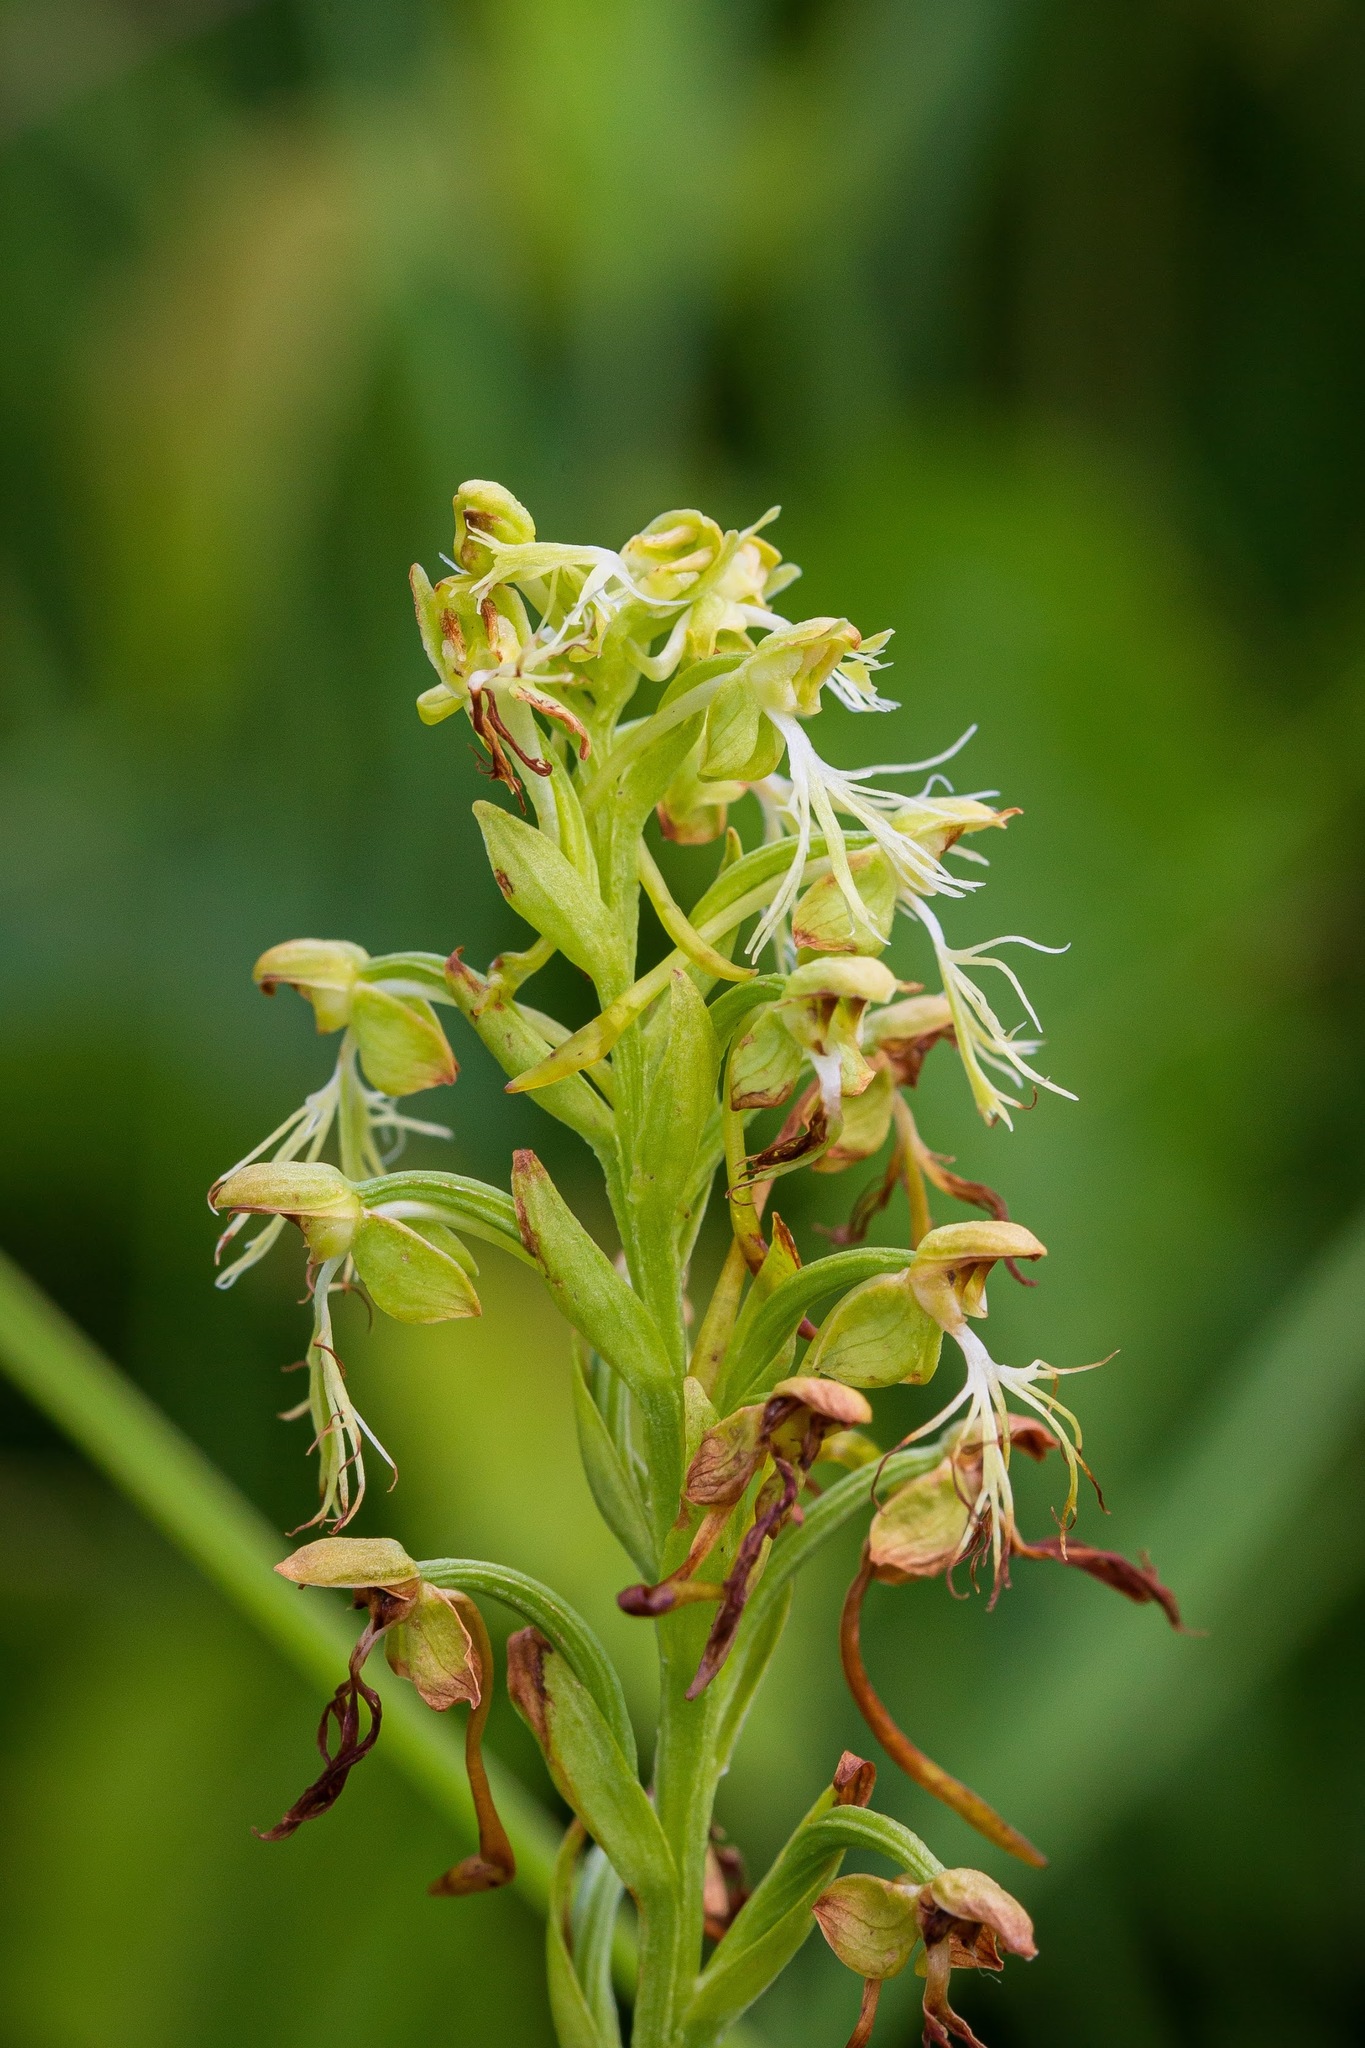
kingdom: Plantae
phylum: Tracheophyta
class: Liliopsida
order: Asparagales
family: Orchidaceae
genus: Platanthera
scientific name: Platanthera lacera
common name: Green fringed orchid
